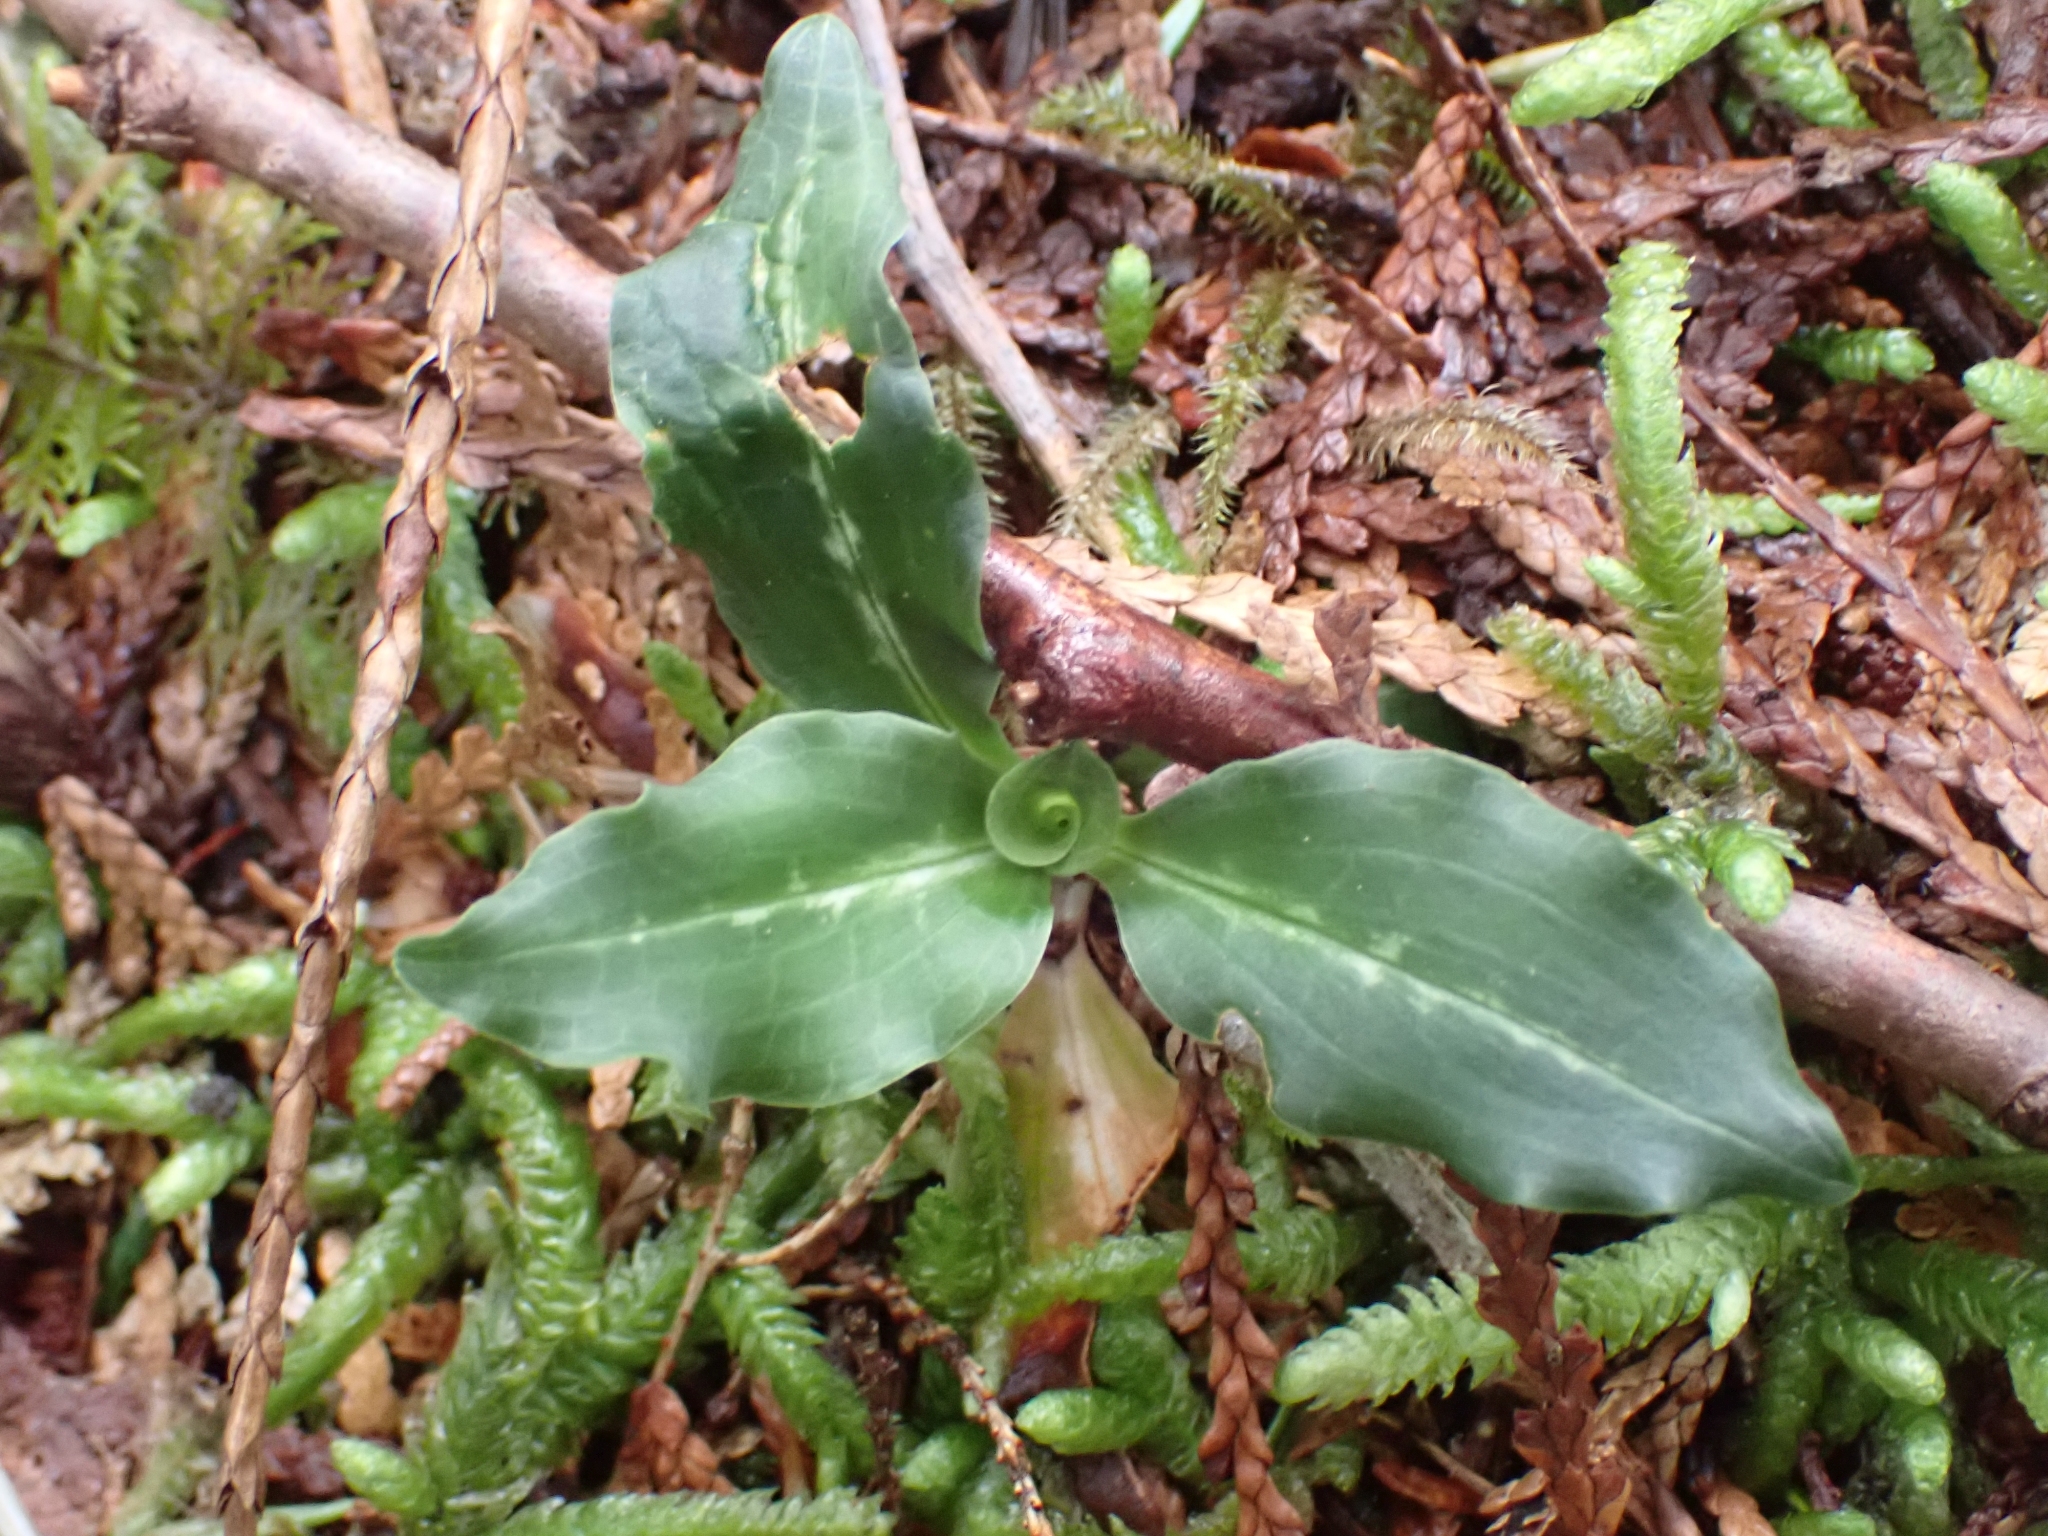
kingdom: Plantae
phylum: Tracheophyta
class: Liliopsida
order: Asparagales
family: Orchidaceae
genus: Goodyera
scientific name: Goodyera oblongifolia
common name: Giant rattlesnake-plantain
